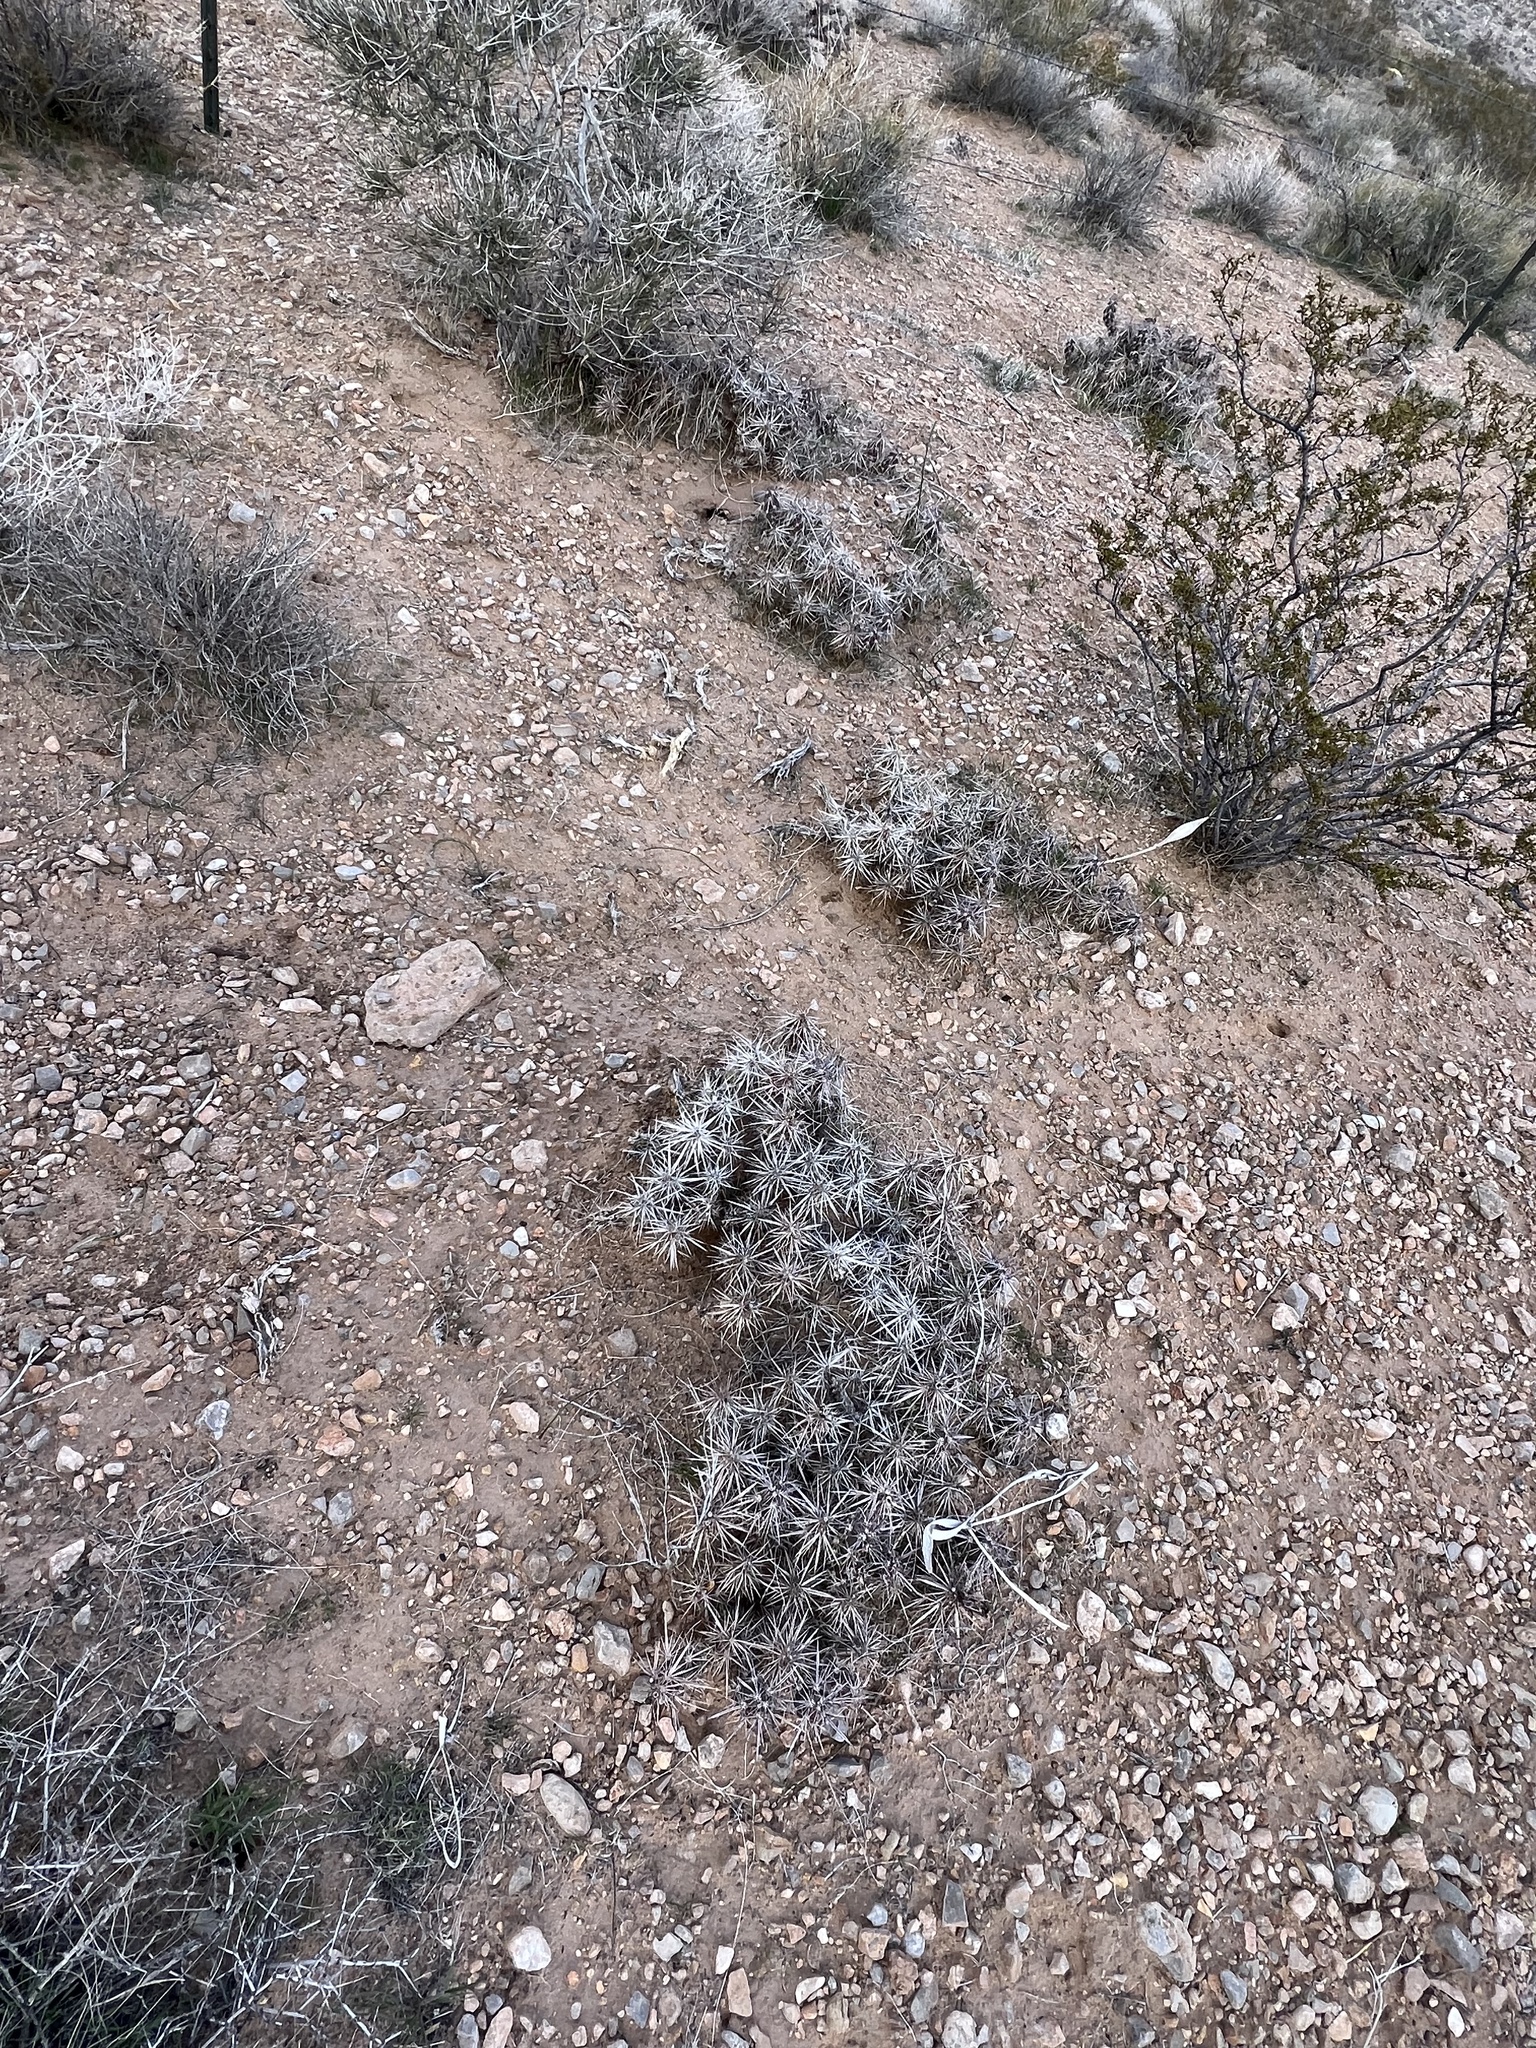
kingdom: Plantae
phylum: Tracheophyta
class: Magnoliopsida
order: Caryophyllales
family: Cactaceae
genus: Grusonia
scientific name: Grusonia parishiorum
